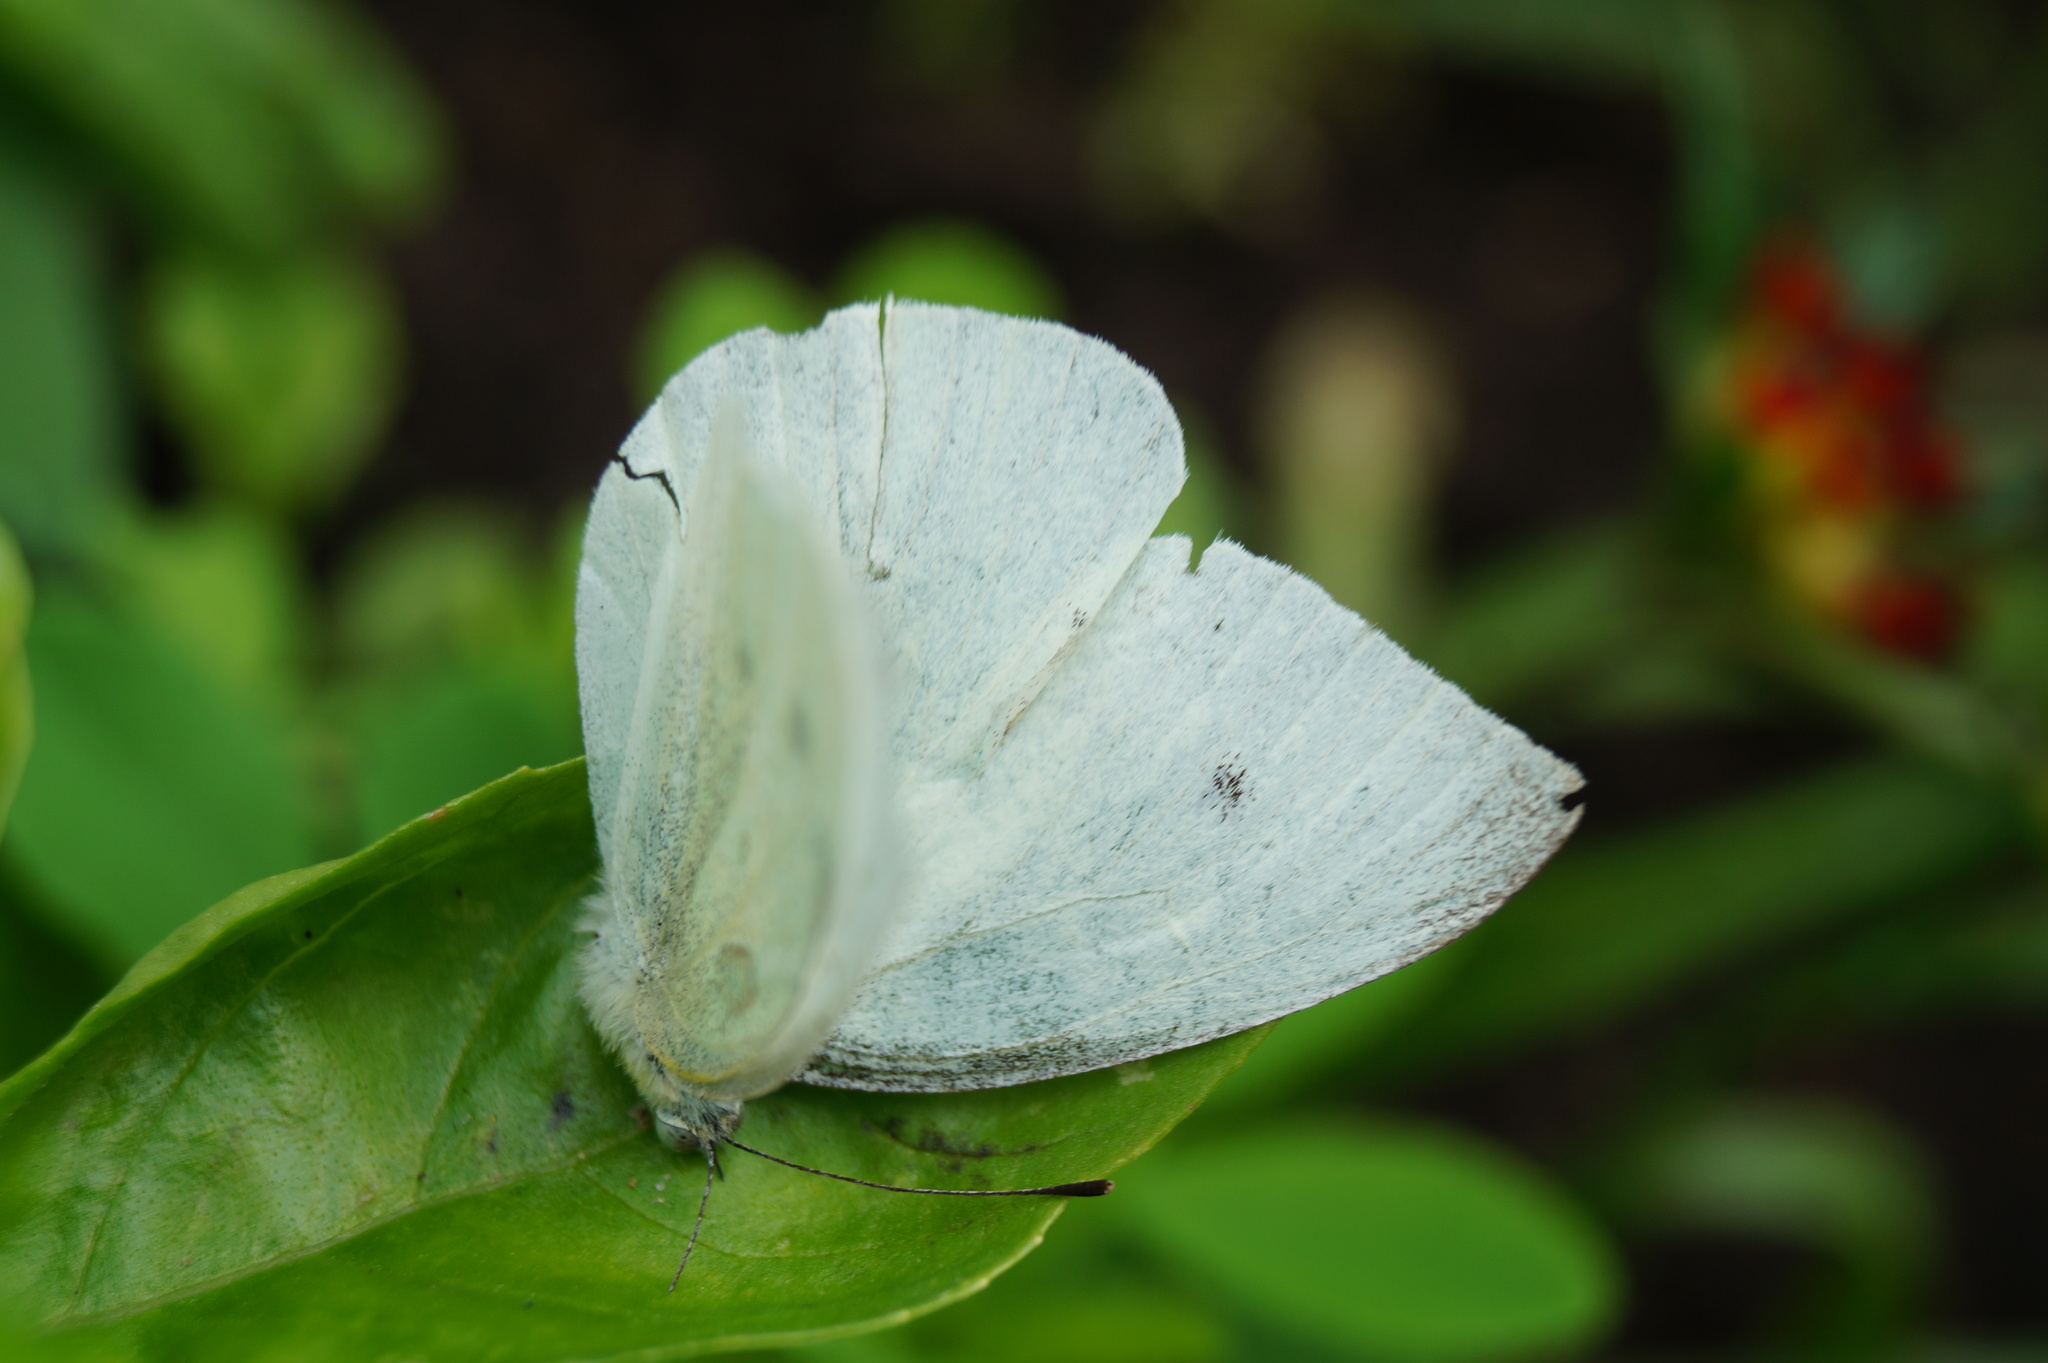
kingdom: Animalia
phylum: Arthropoda
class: Insecta
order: Lepidoptera
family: Pieridae
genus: Pieris
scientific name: Pieris rapae
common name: Small white
